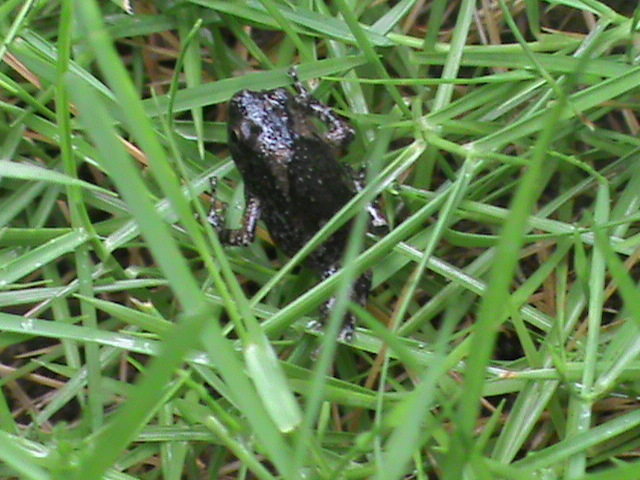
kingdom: Animalia
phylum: Chordata
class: Amphibia
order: Anura
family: Microhylidae
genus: Uperodon
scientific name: Uperodon taprobanicus
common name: Ceylon kaloula
